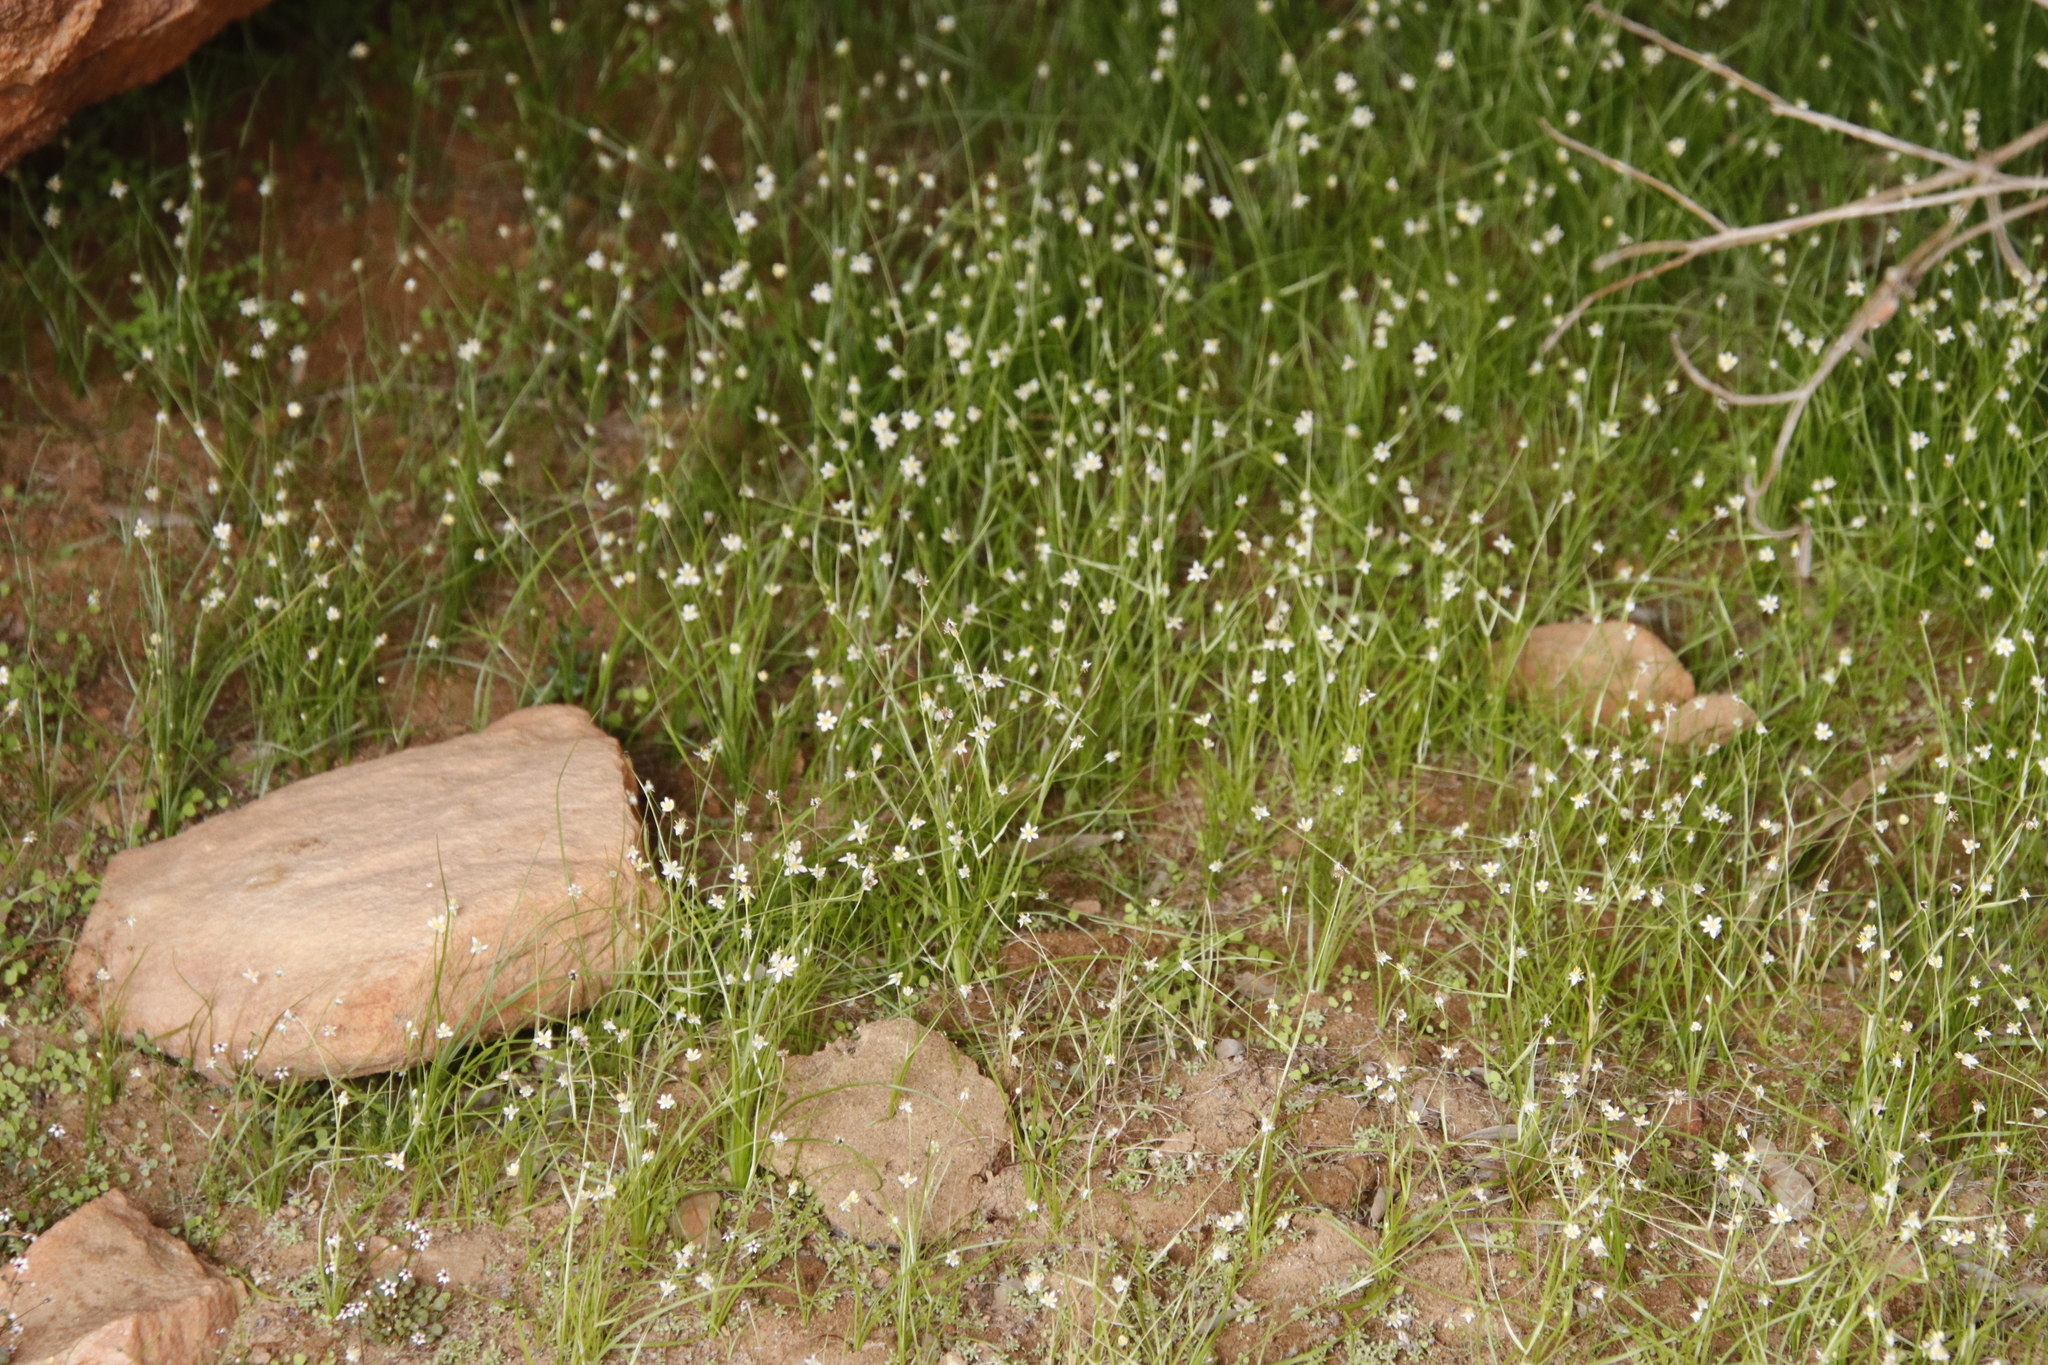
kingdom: Plantae
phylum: Tracheophyta
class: Magnoliopsida
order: Saxifragales
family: Crassulaceae
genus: Crassula
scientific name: Crassula dentata
